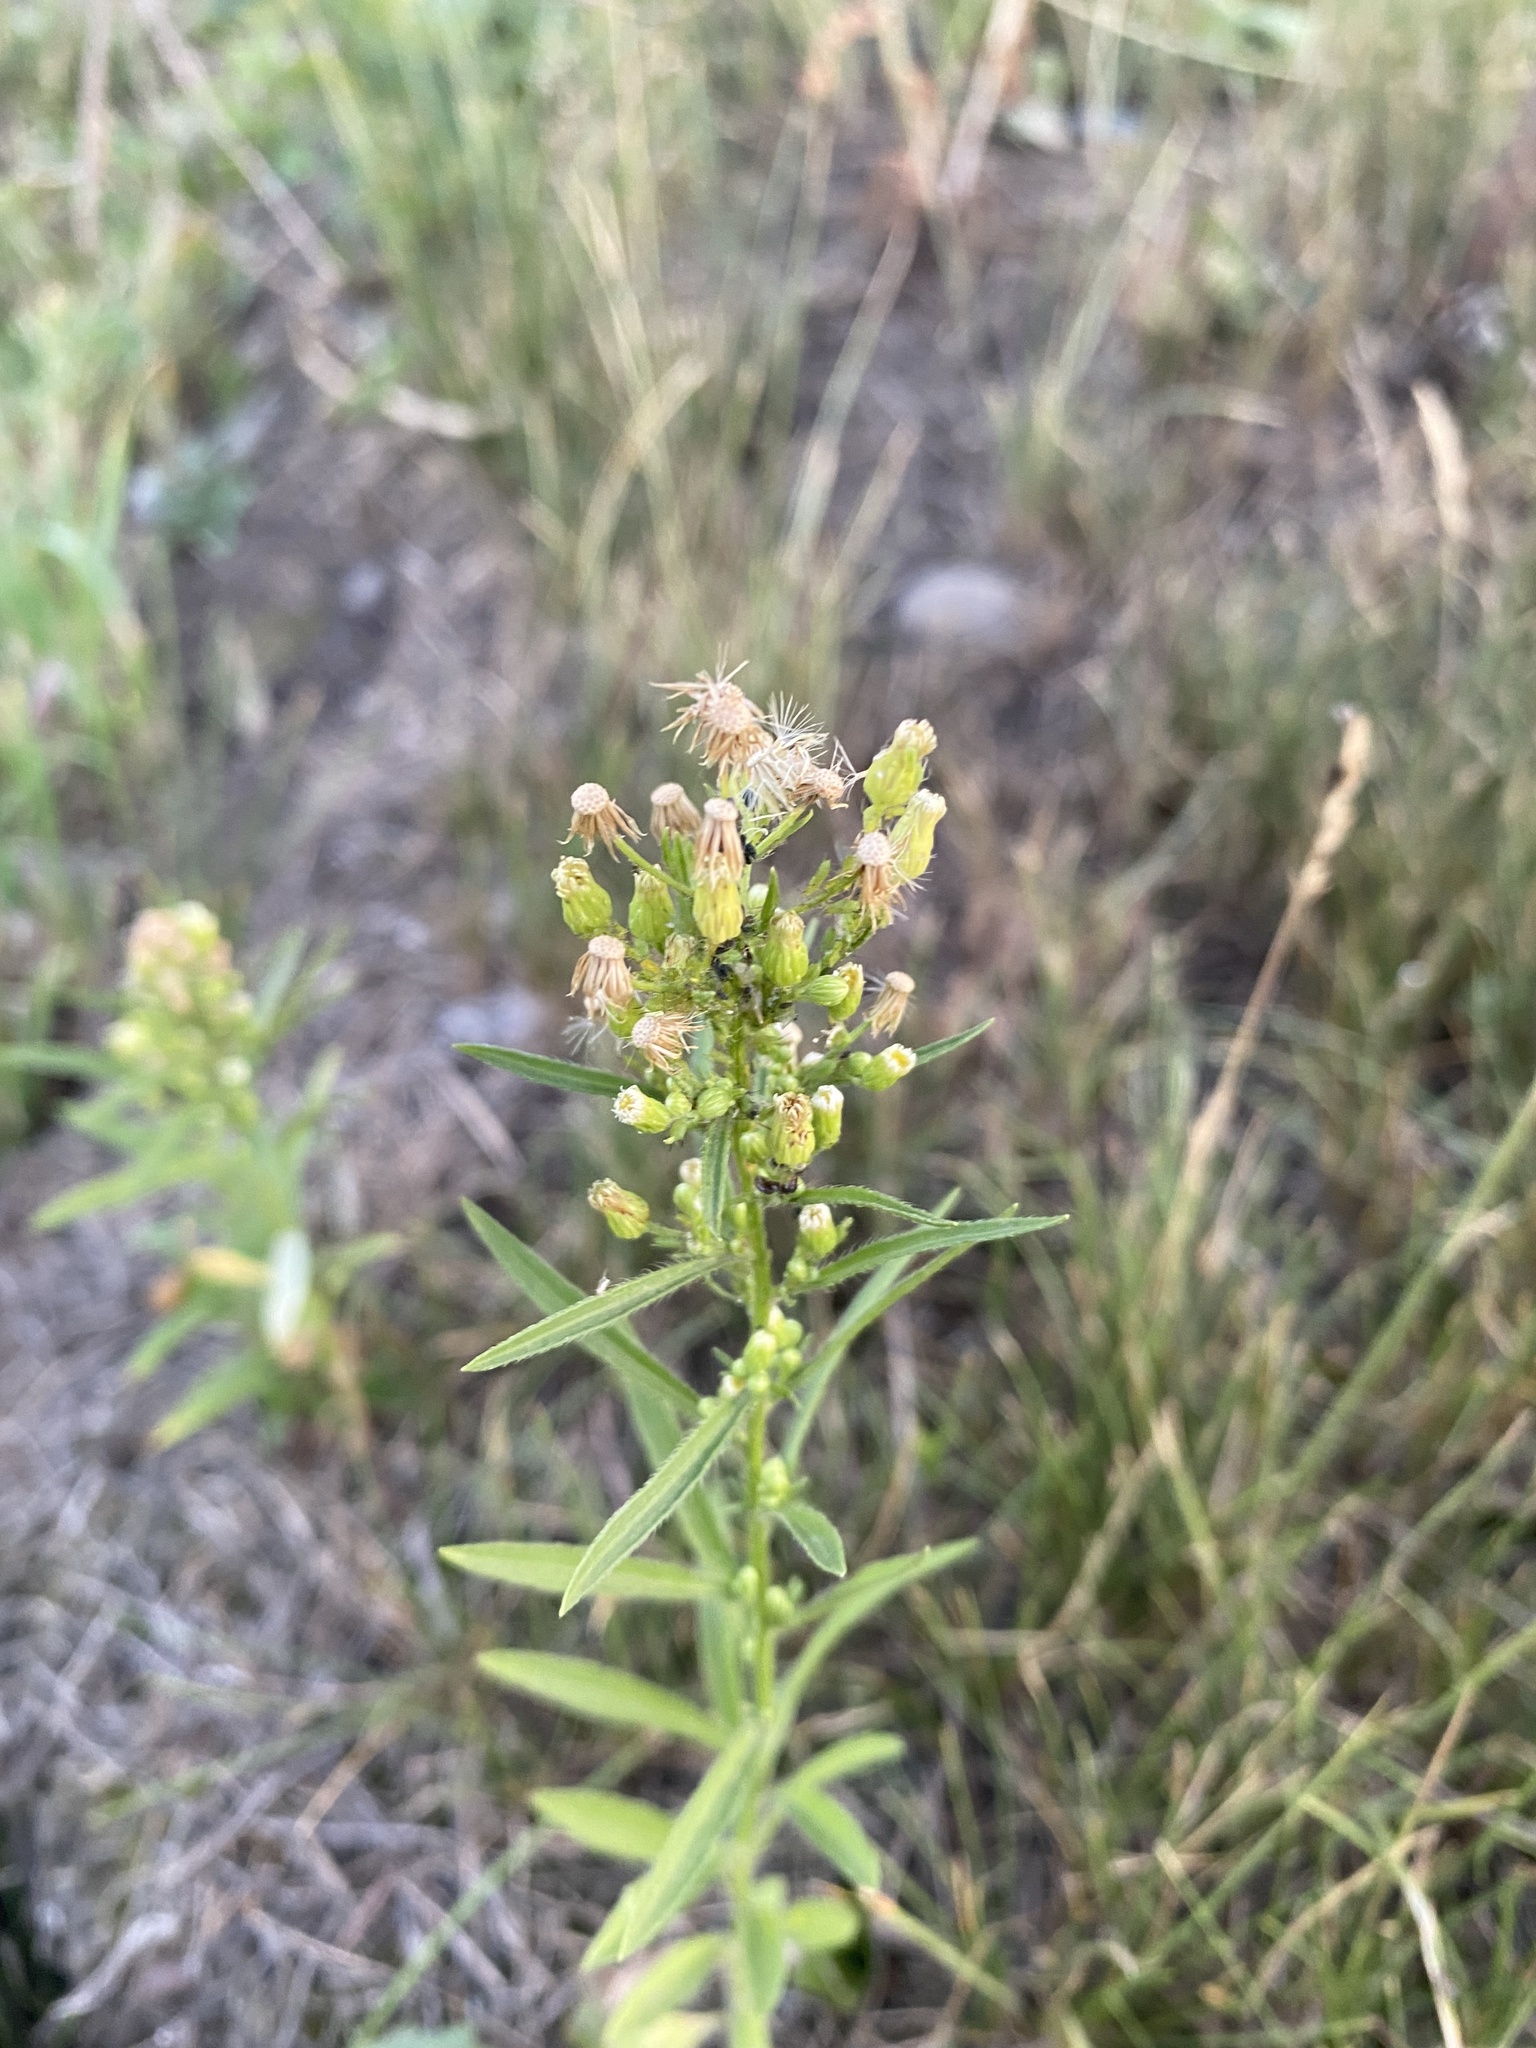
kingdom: Plantae
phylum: Tracheophyta
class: Magnoliopsida
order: Asterales
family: Asteraceae
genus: Erigeron
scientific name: Erigeron canadensis
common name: Canadian fleabane
